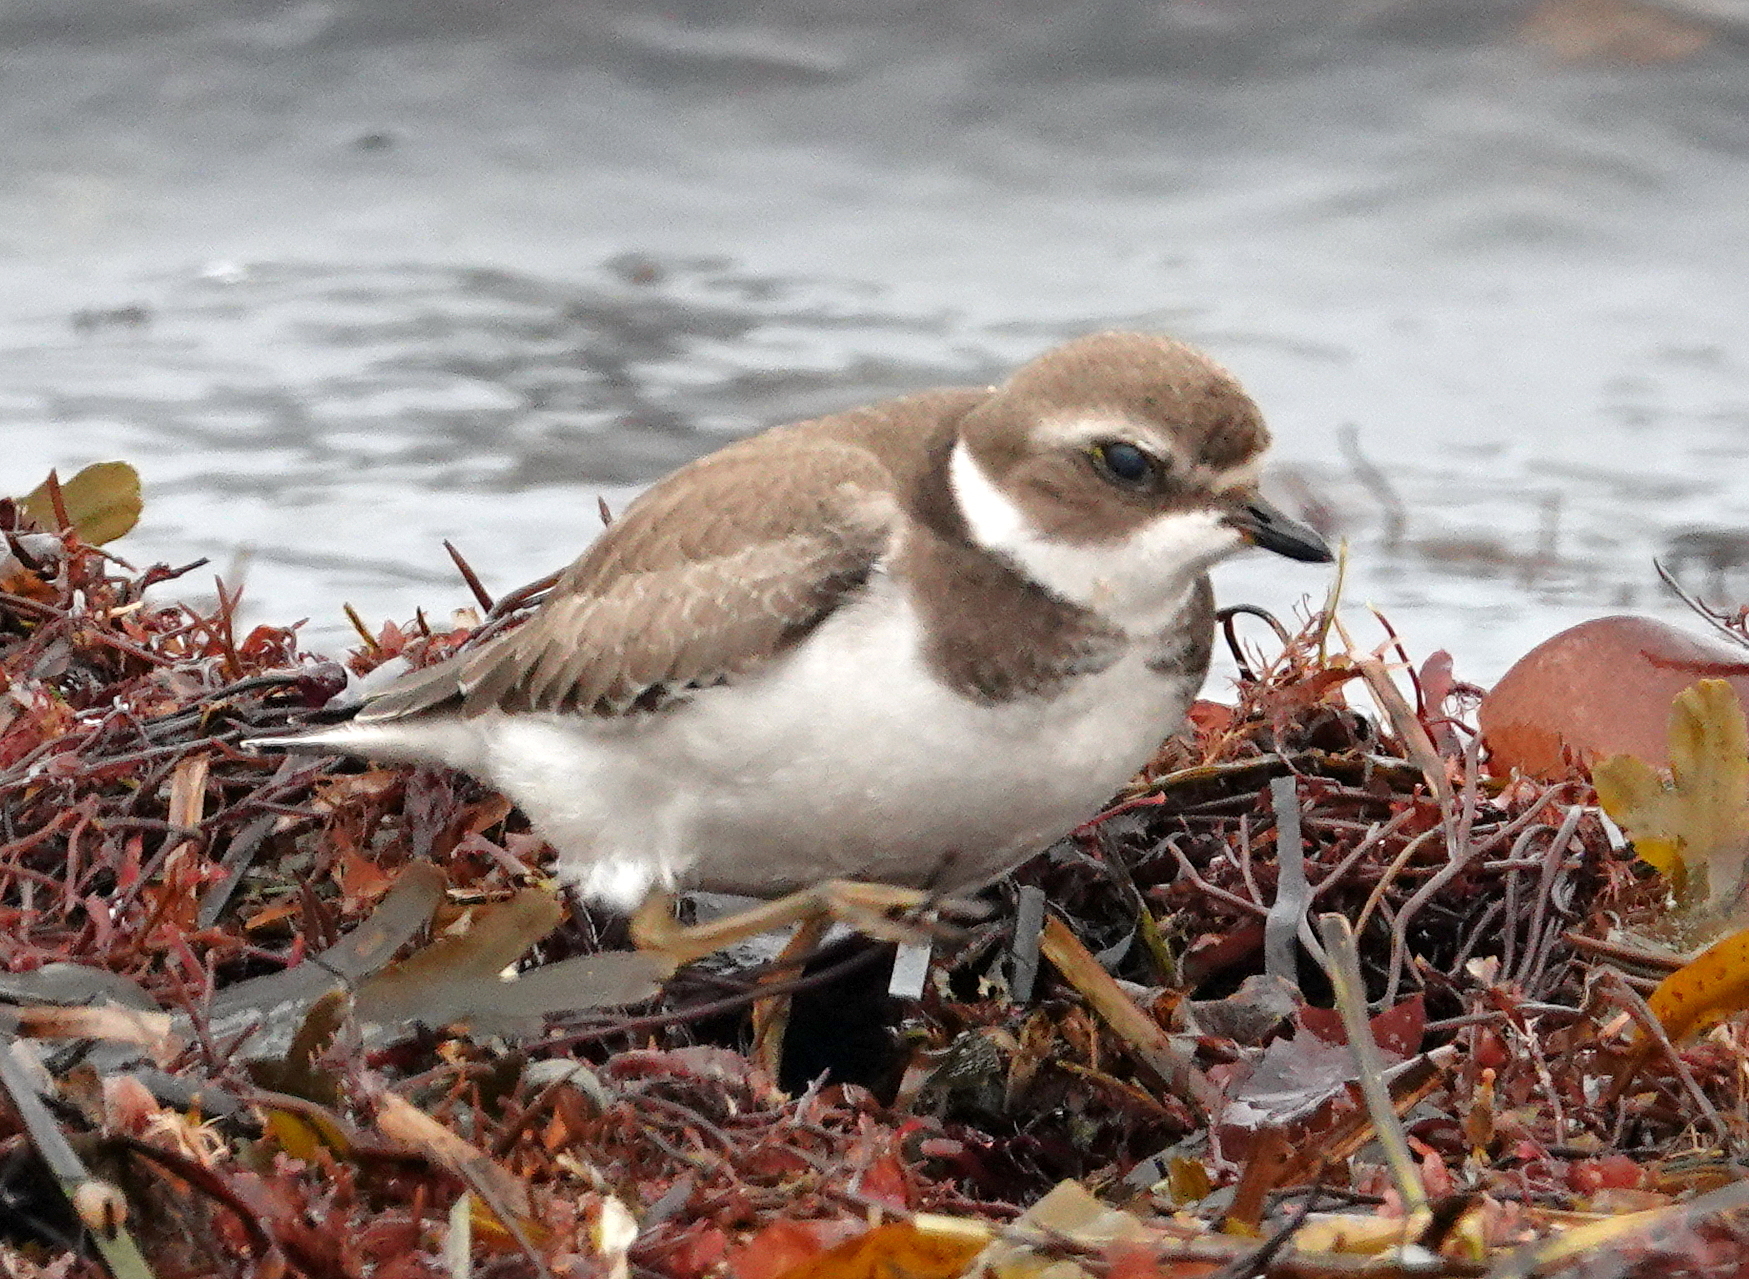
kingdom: Animalia
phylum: Chordata
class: Aves
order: Charadriiformes
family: Charadriidae
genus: Charadrius
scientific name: Charadrius semipalmatus
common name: Semipalmated plover
